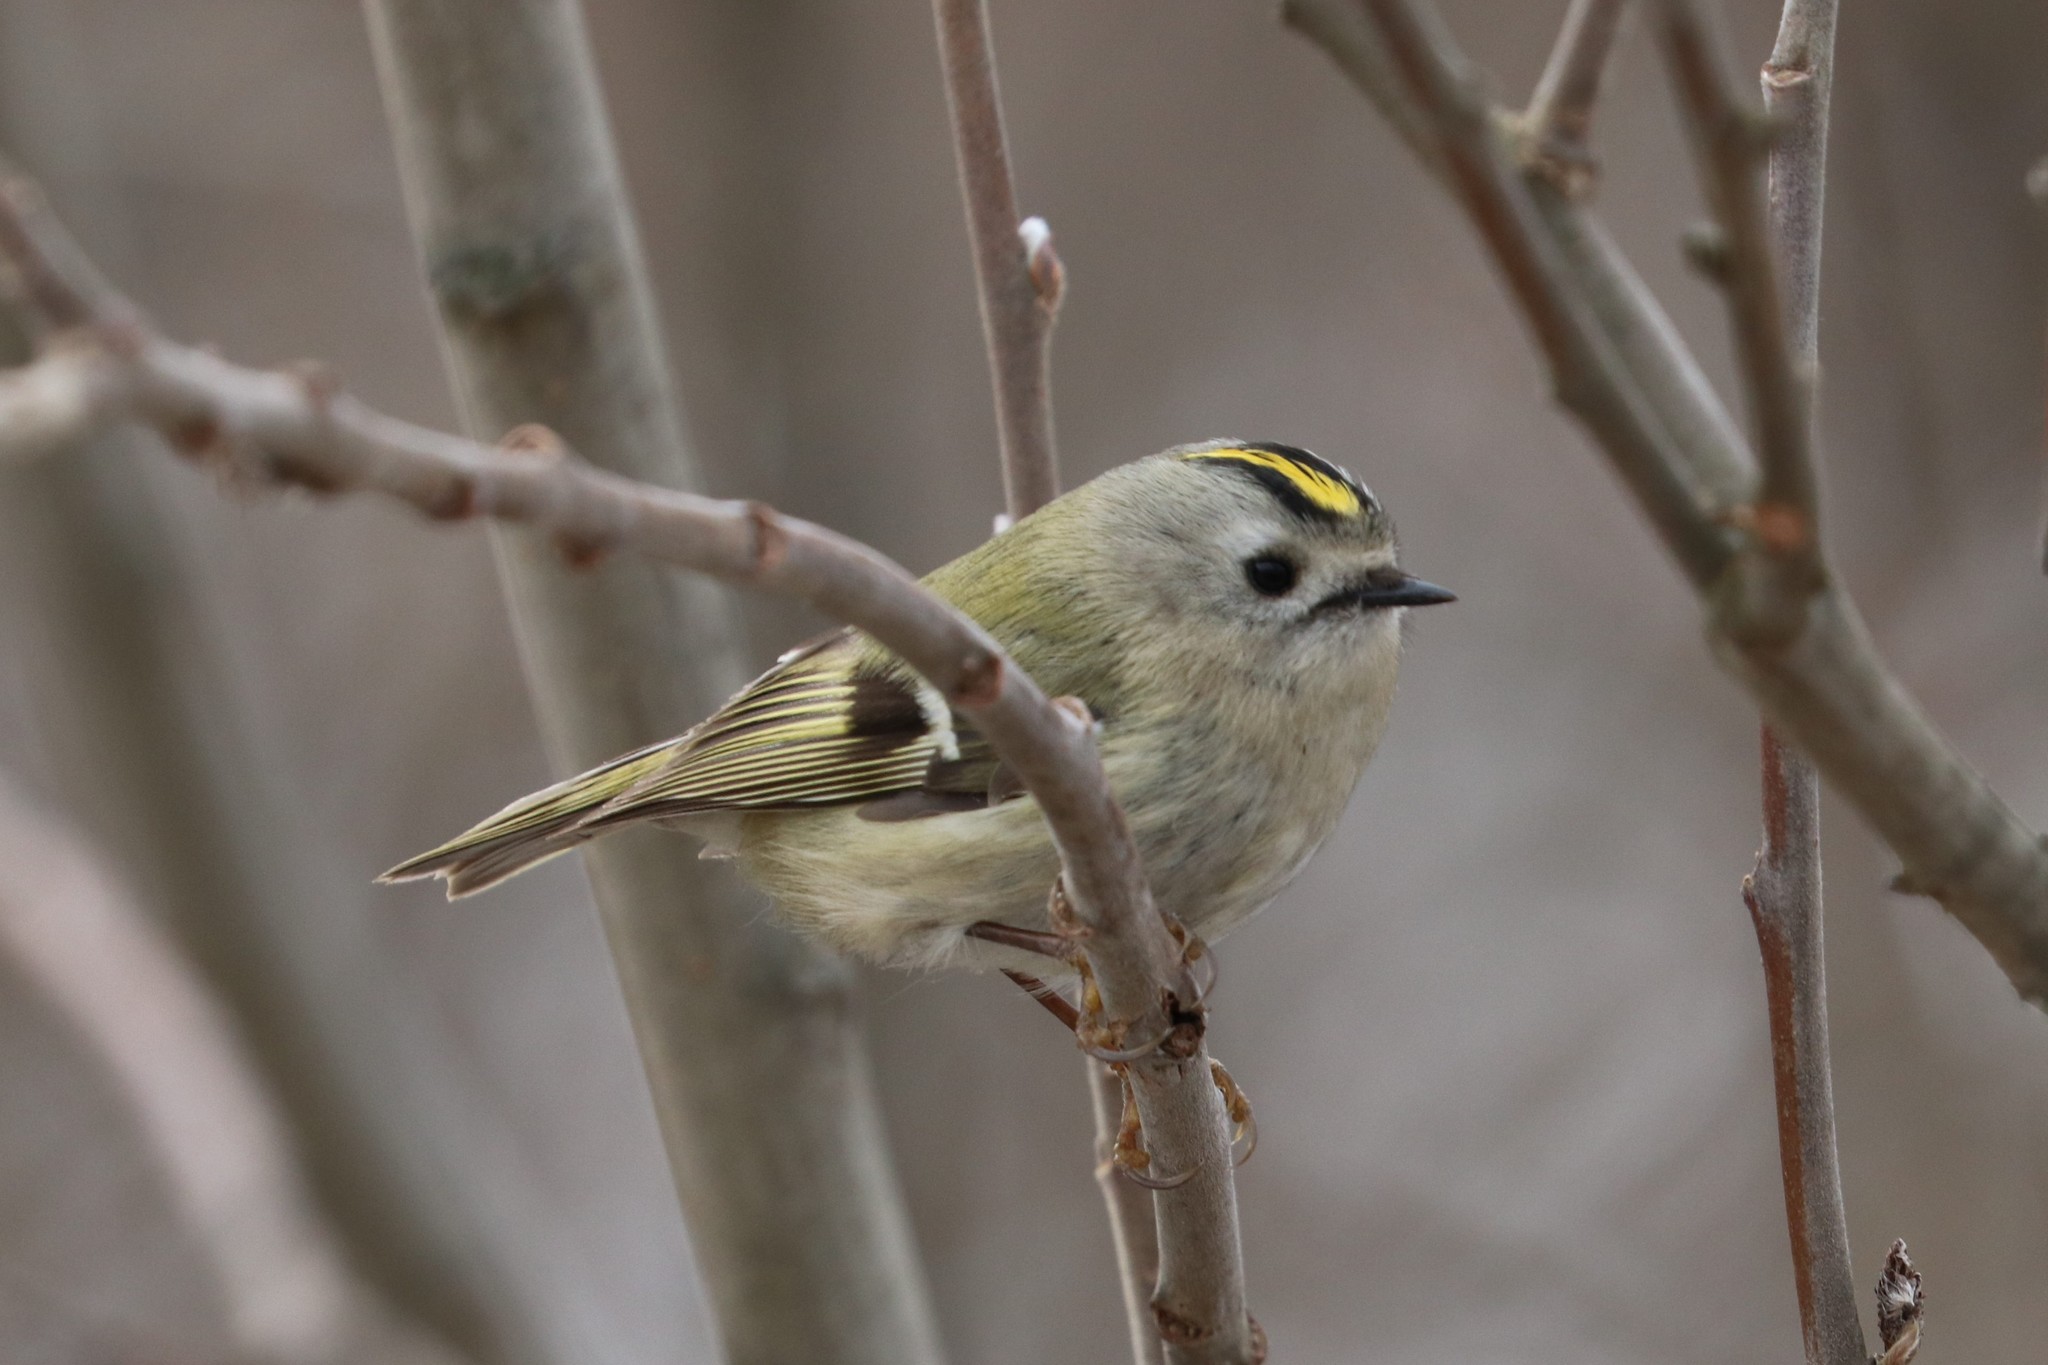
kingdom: Animalia
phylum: Chordata
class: Aves
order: Passeriformes
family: Regulidae
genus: Regulus
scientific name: Regulus regulus
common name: Goldcrest
